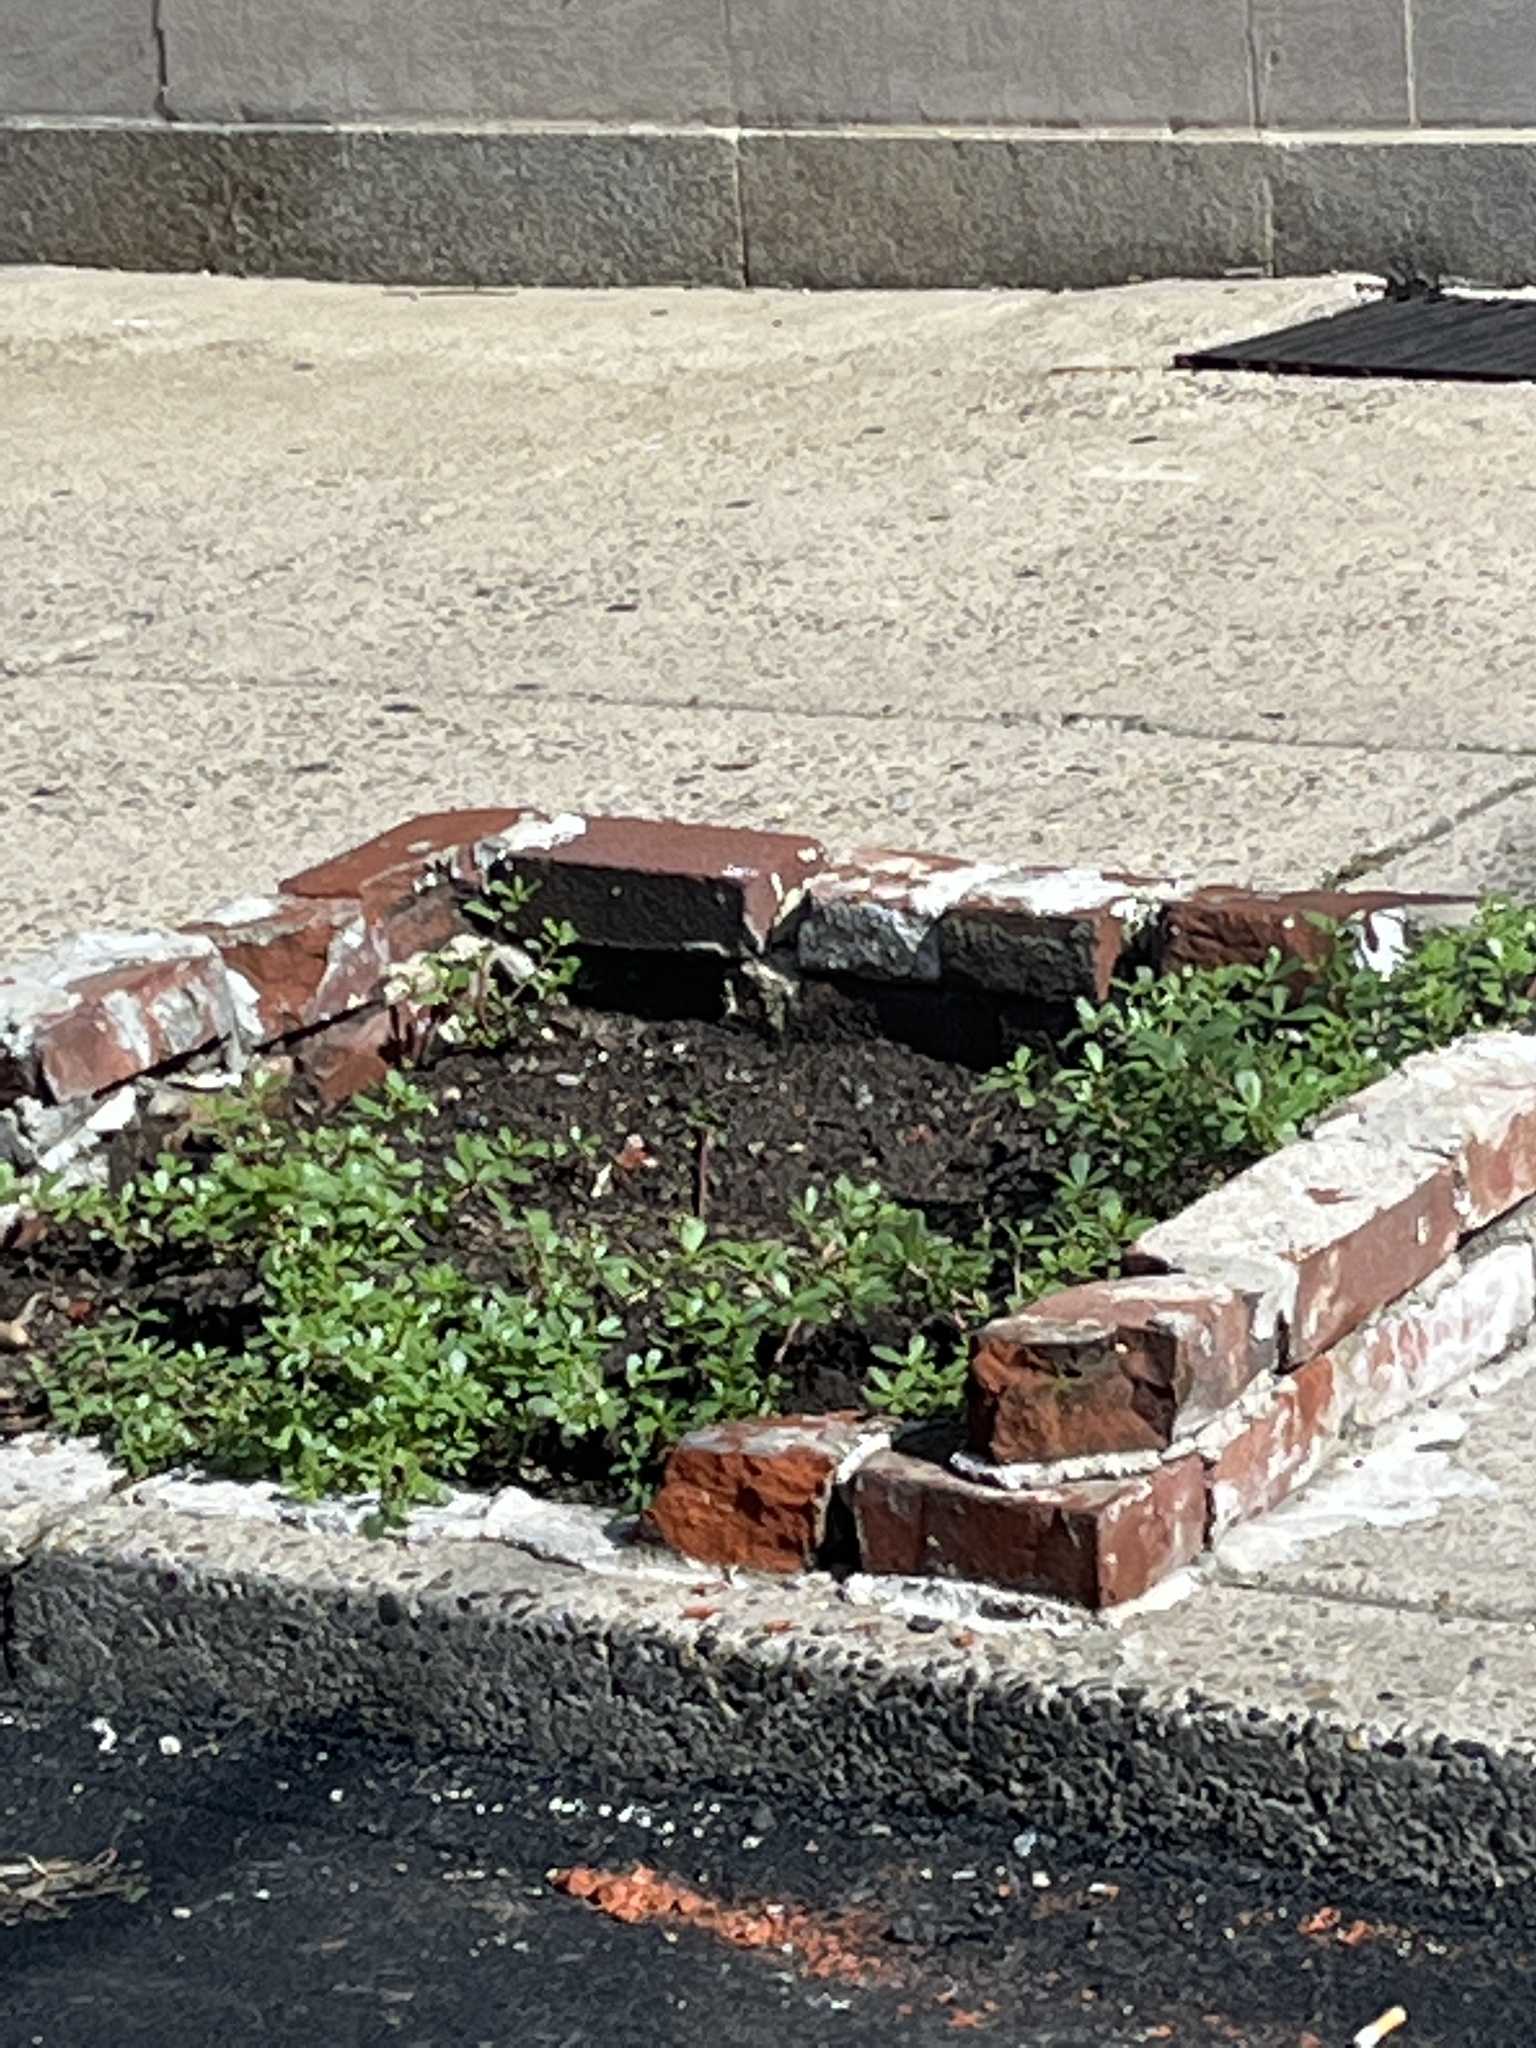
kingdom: Plantae
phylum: Tracheophyta
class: Magnoliopsida
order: Caryophyllales
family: Portulacaceae
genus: Portulaca
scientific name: Portulaca oleracea
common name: Common purslane
